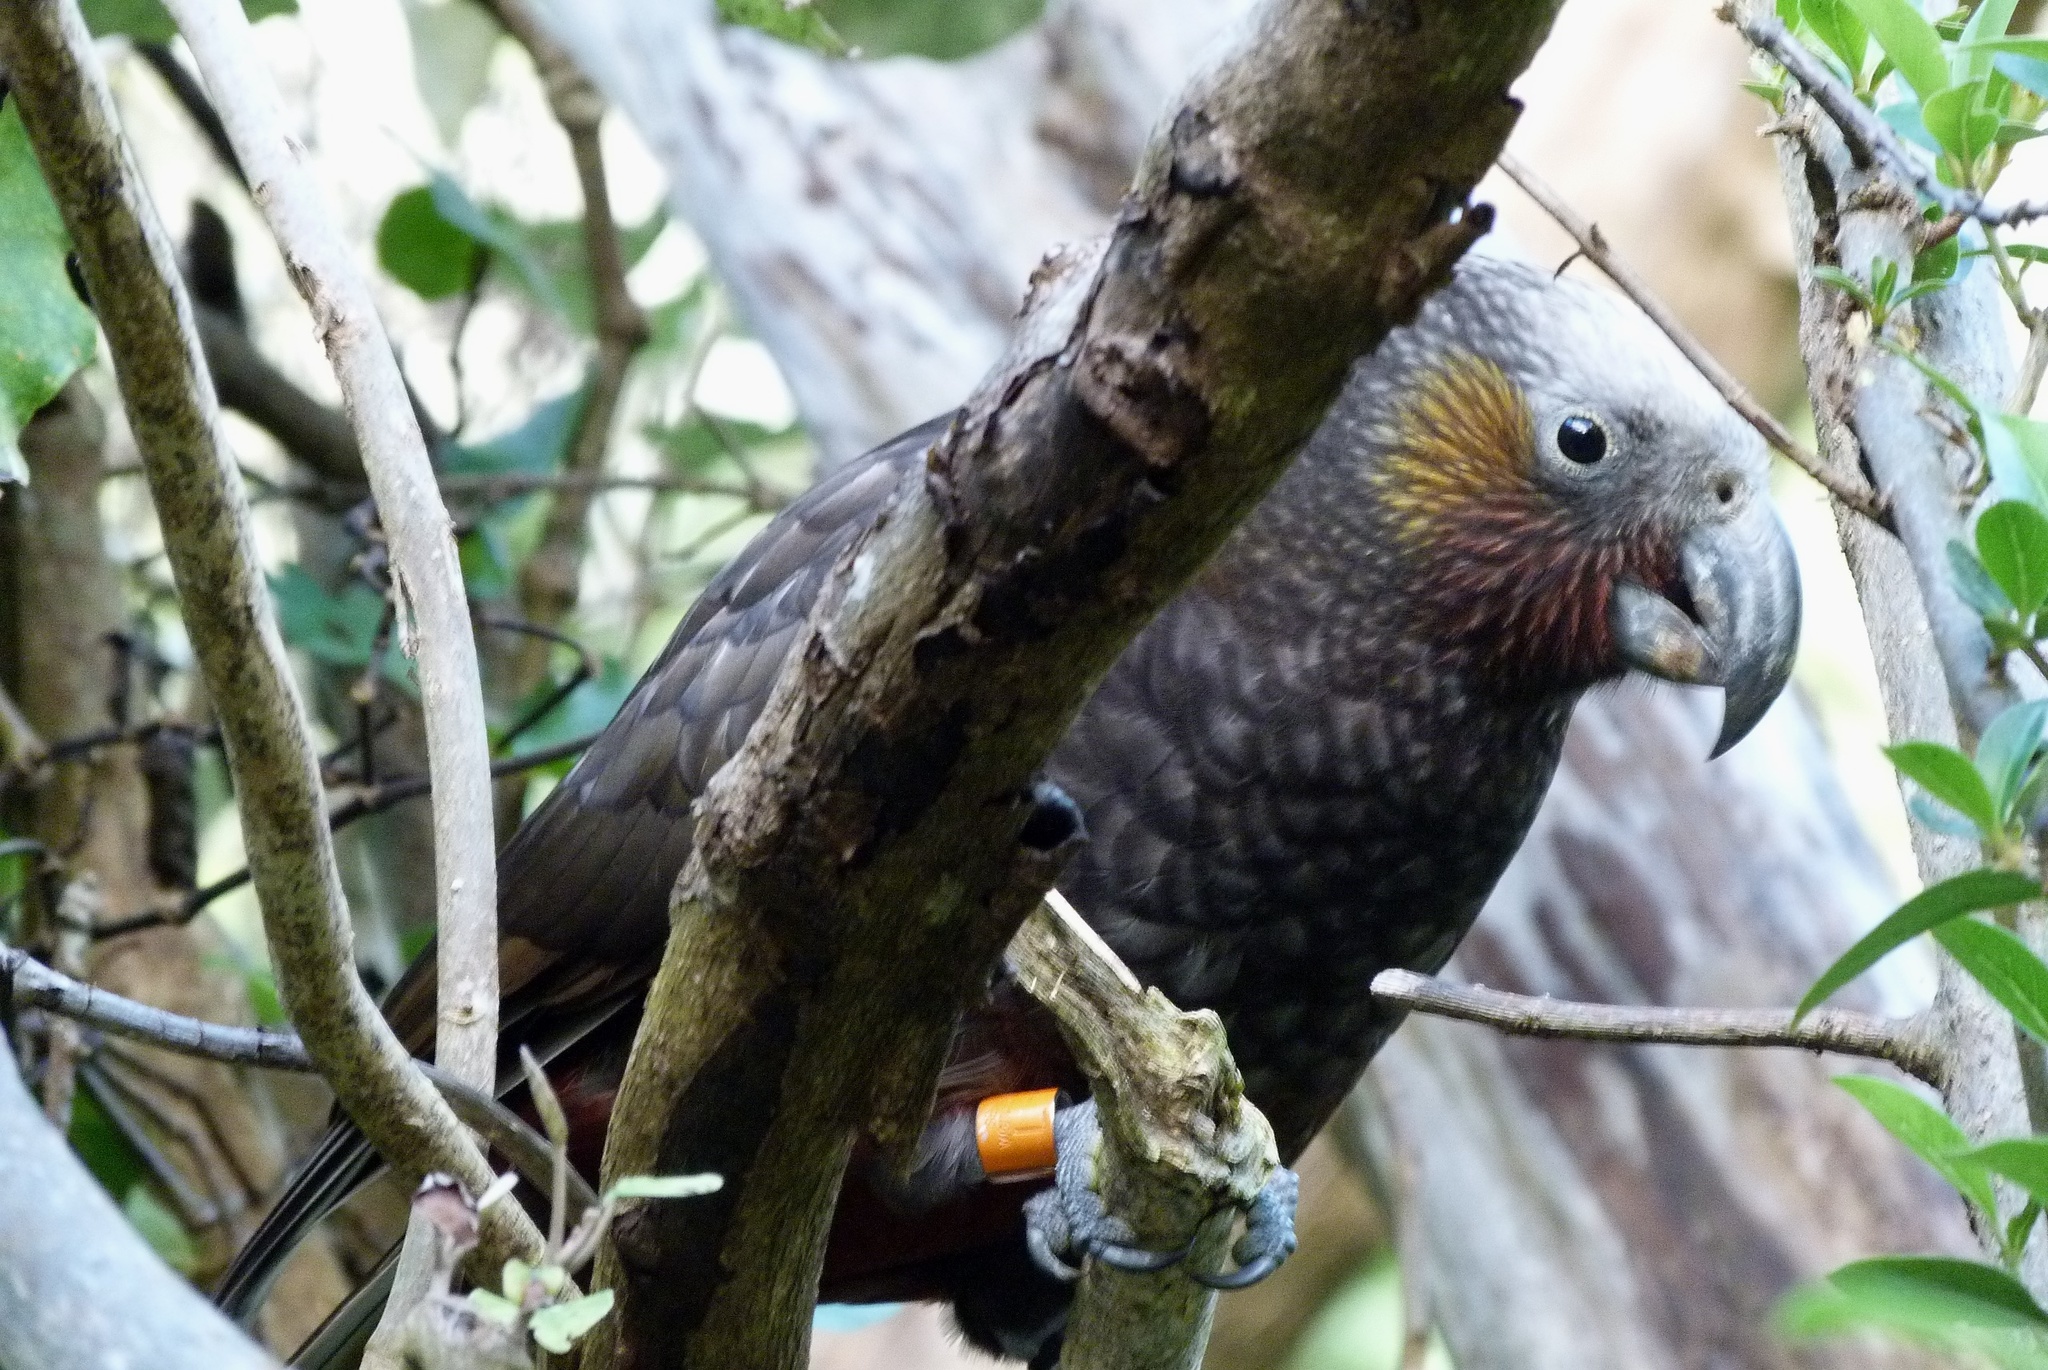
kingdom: Animalia
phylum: Chordata
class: Aves
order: Psittaciformes
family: Psittacidae
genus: Nestor
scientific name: Nestor meridionalis
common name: New zealand kaka
